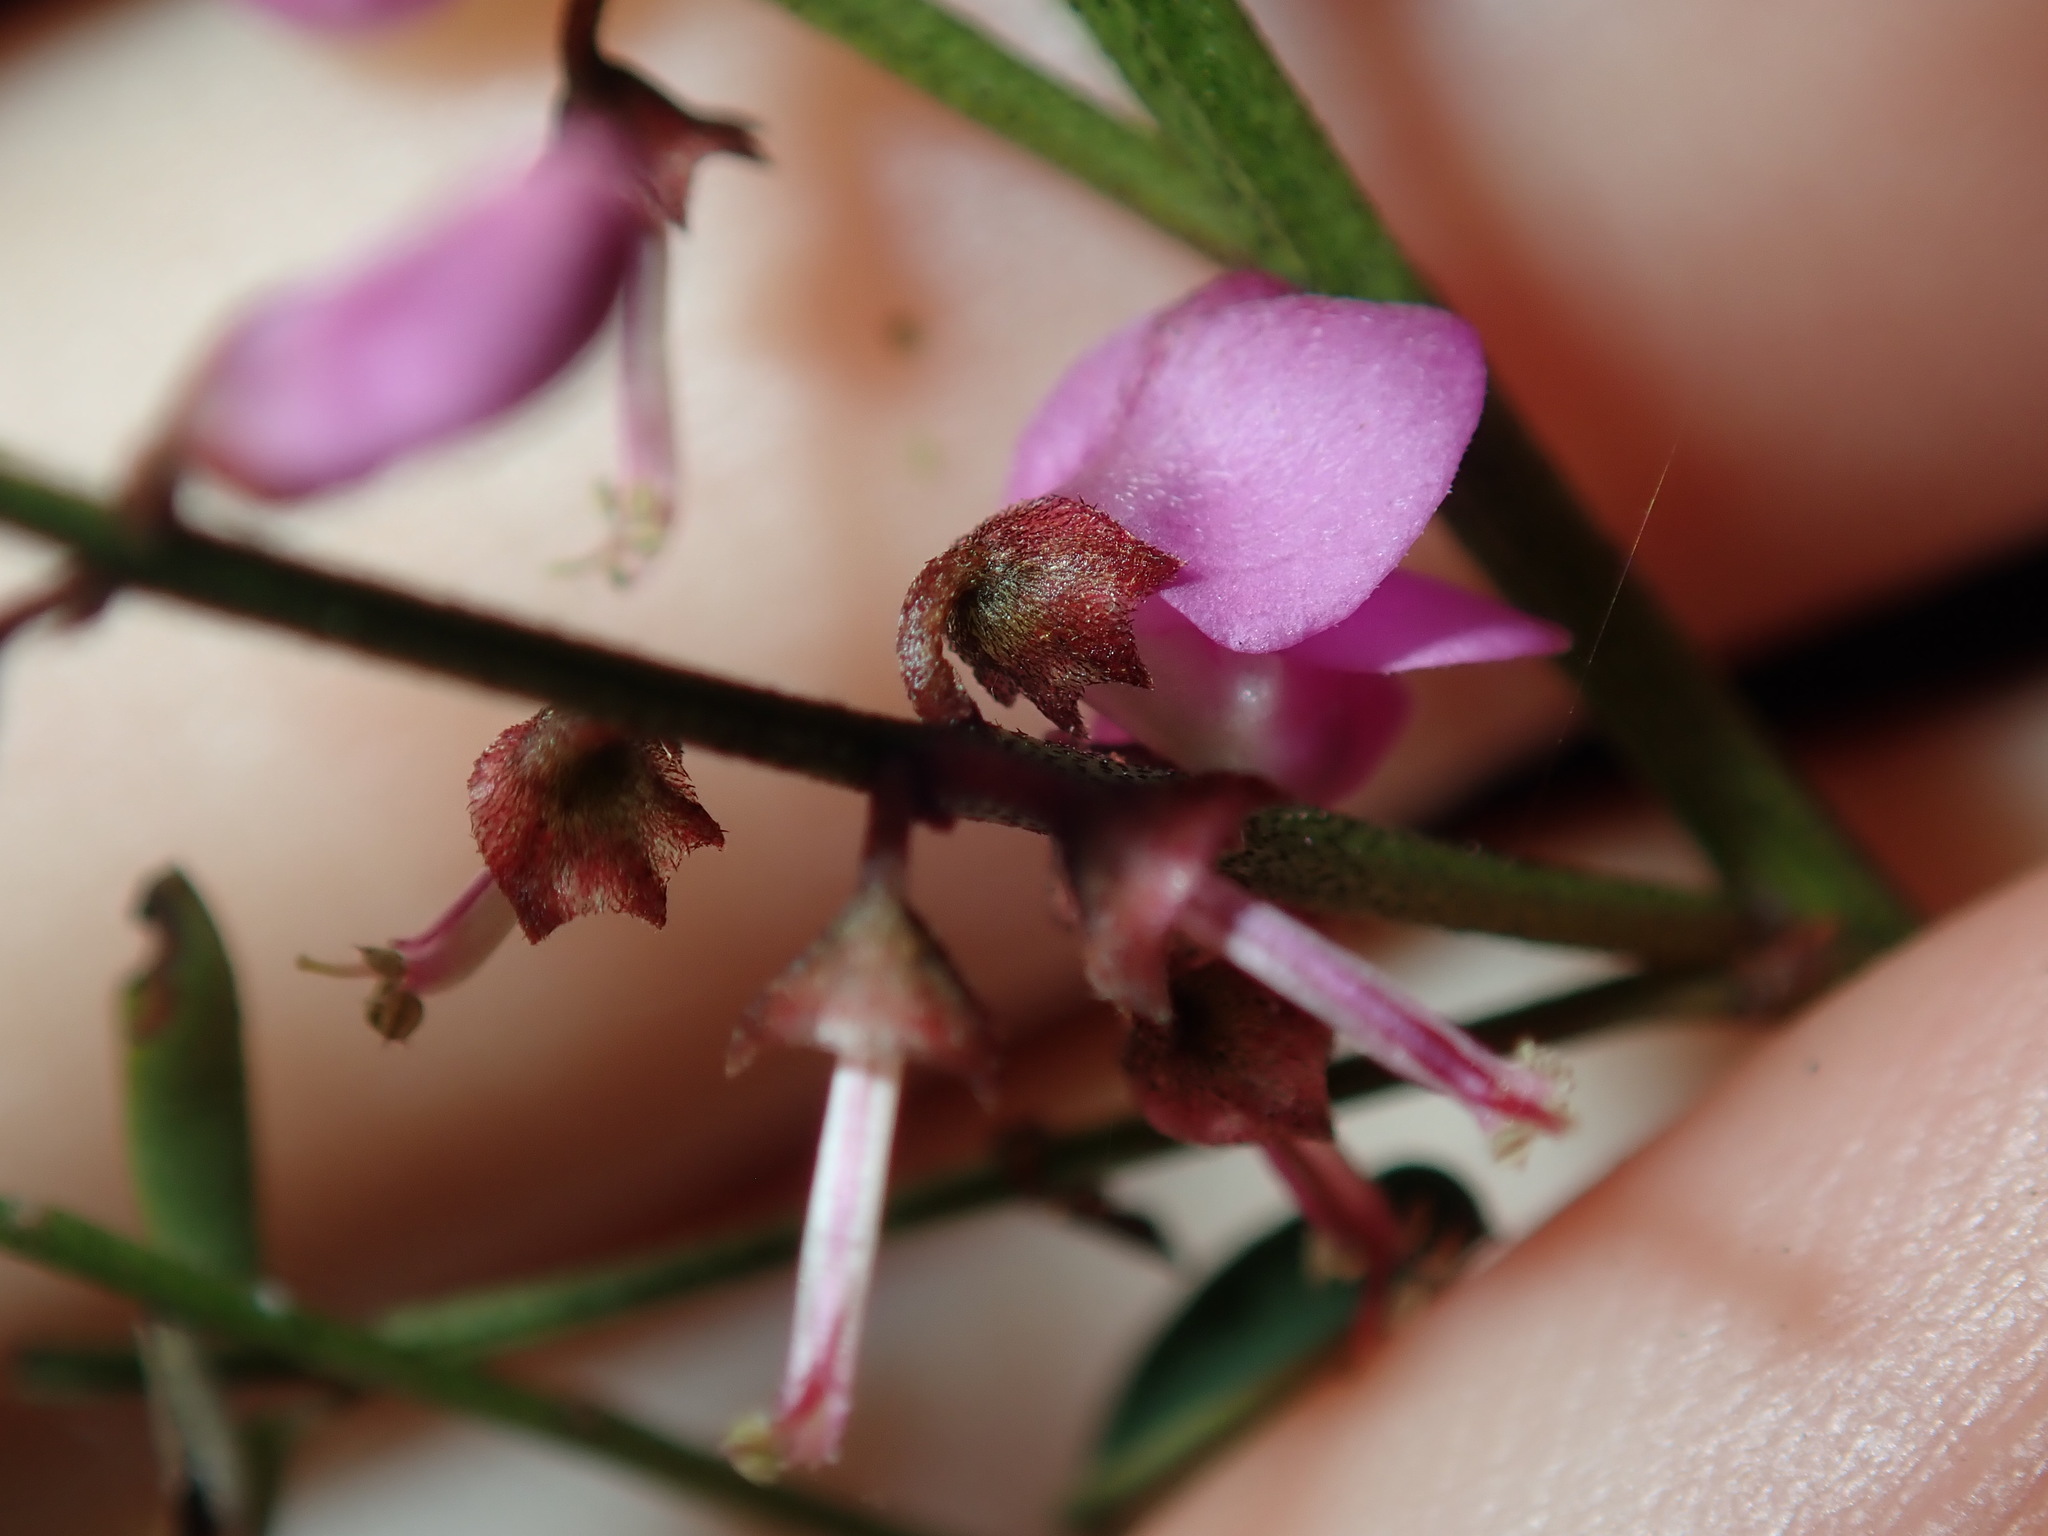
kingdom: Plantae
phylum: Tracheophyta
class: Magnoliopsida
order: Fabales
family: Fabaceae
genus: Indigofera
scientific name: Indigofera australis
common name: Australian indigo
